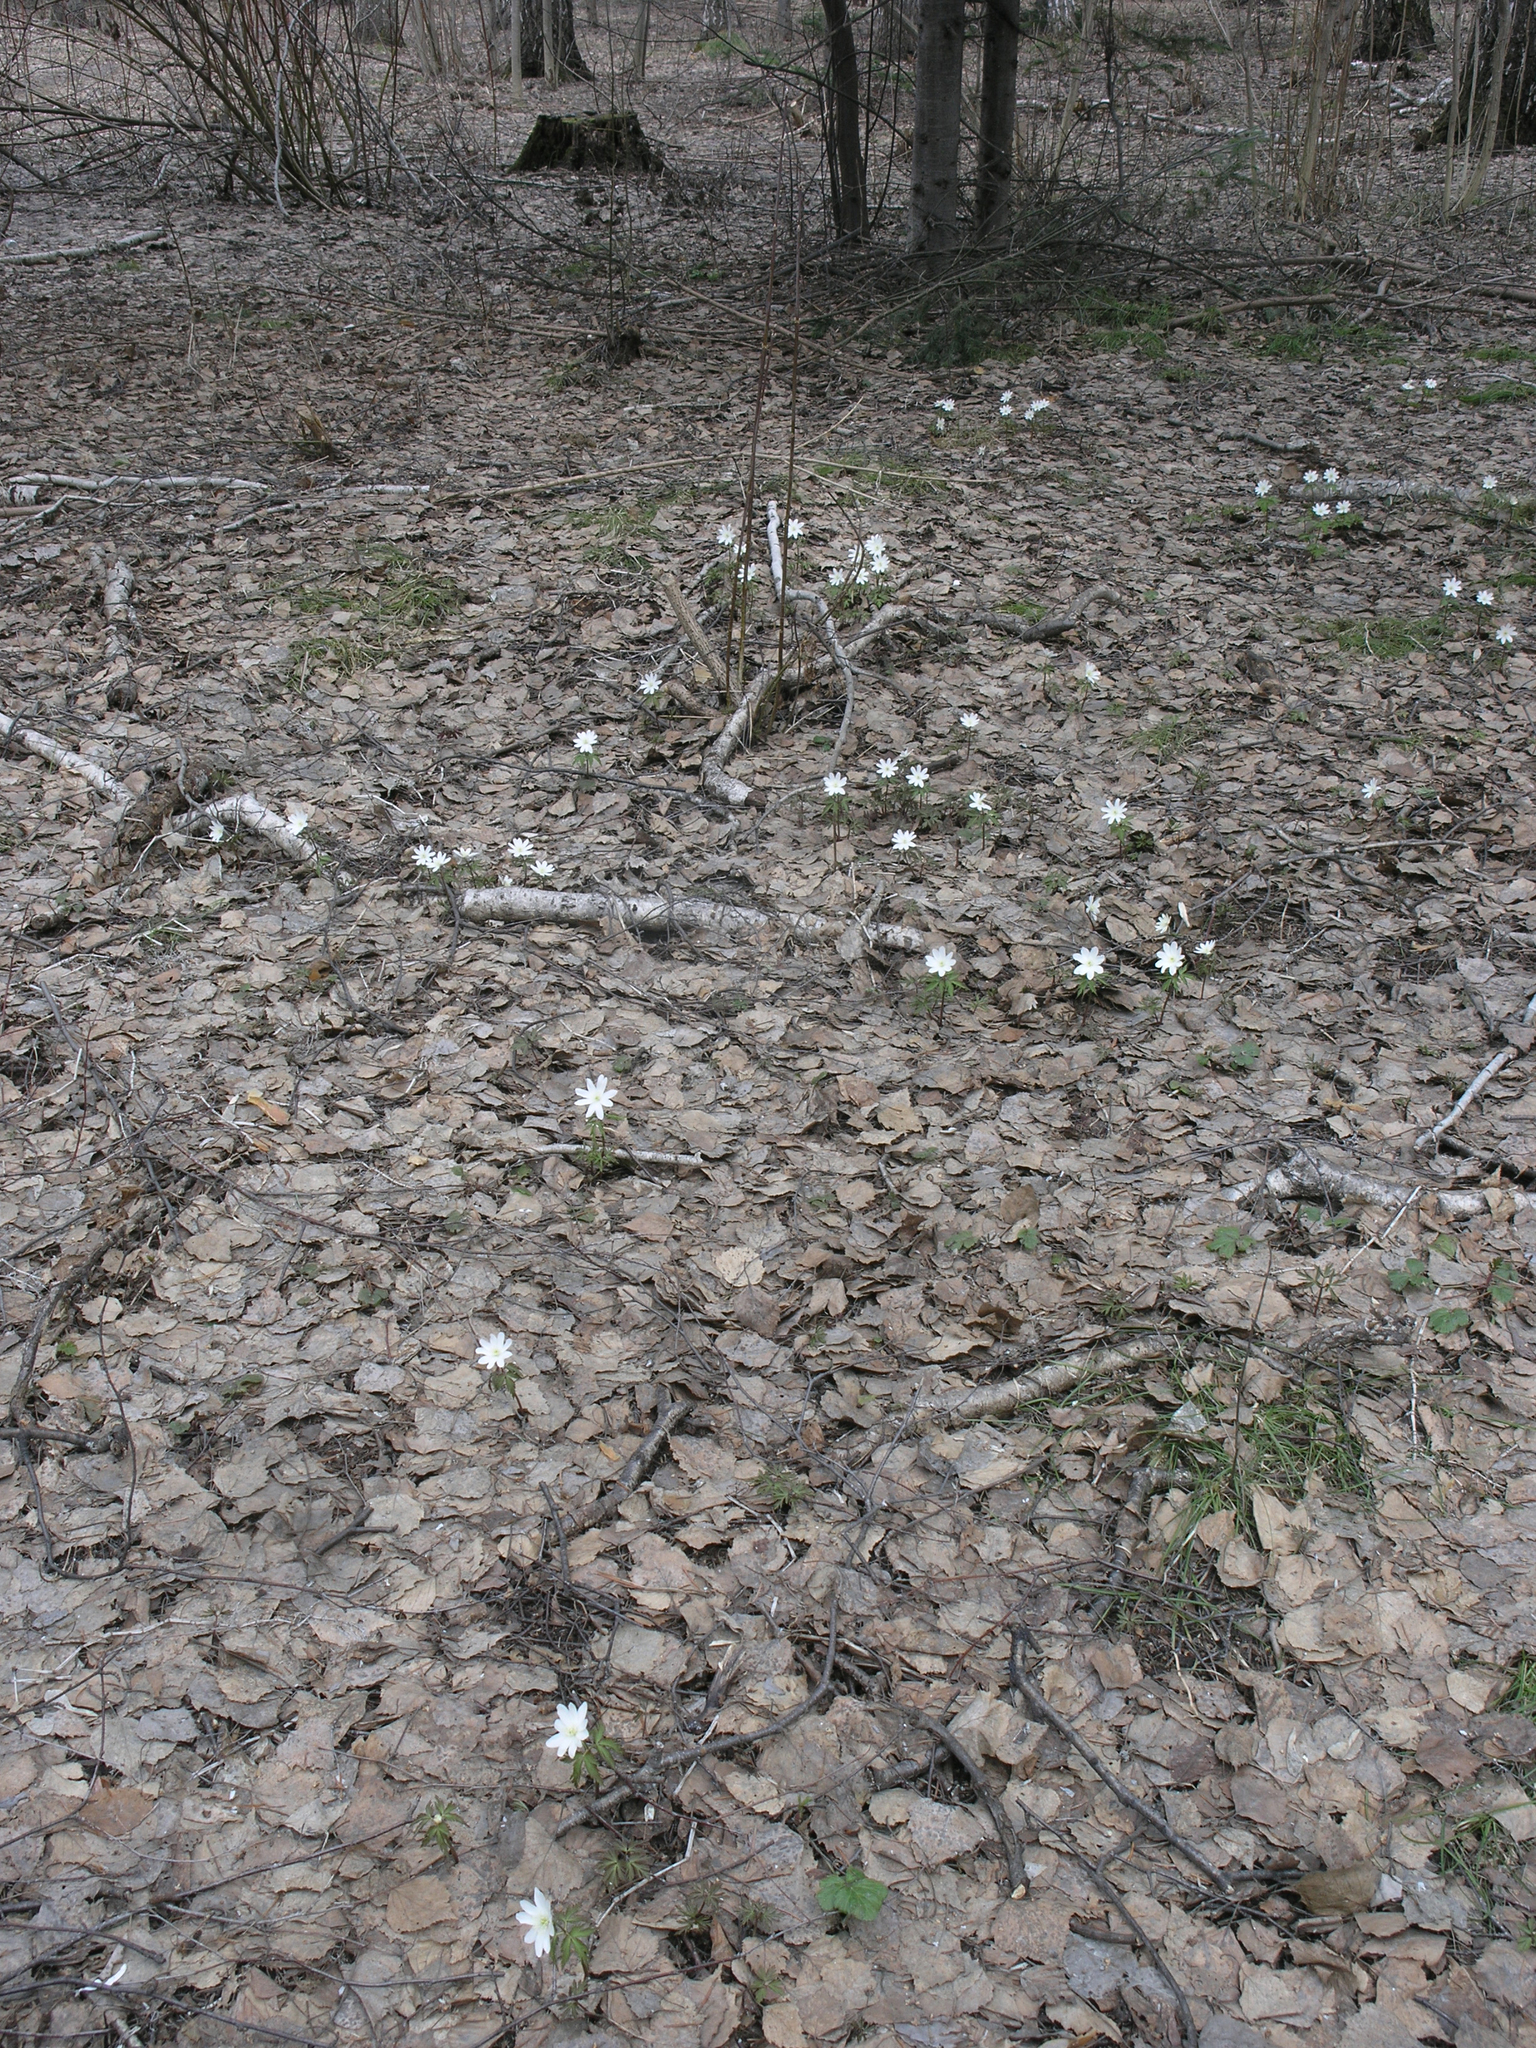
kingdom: Plantae
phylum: Tracheophyta
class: Magnoliopsida
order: Ranunculales
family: Ranunculaceae
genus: Anemone
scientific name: Anemone altaica
